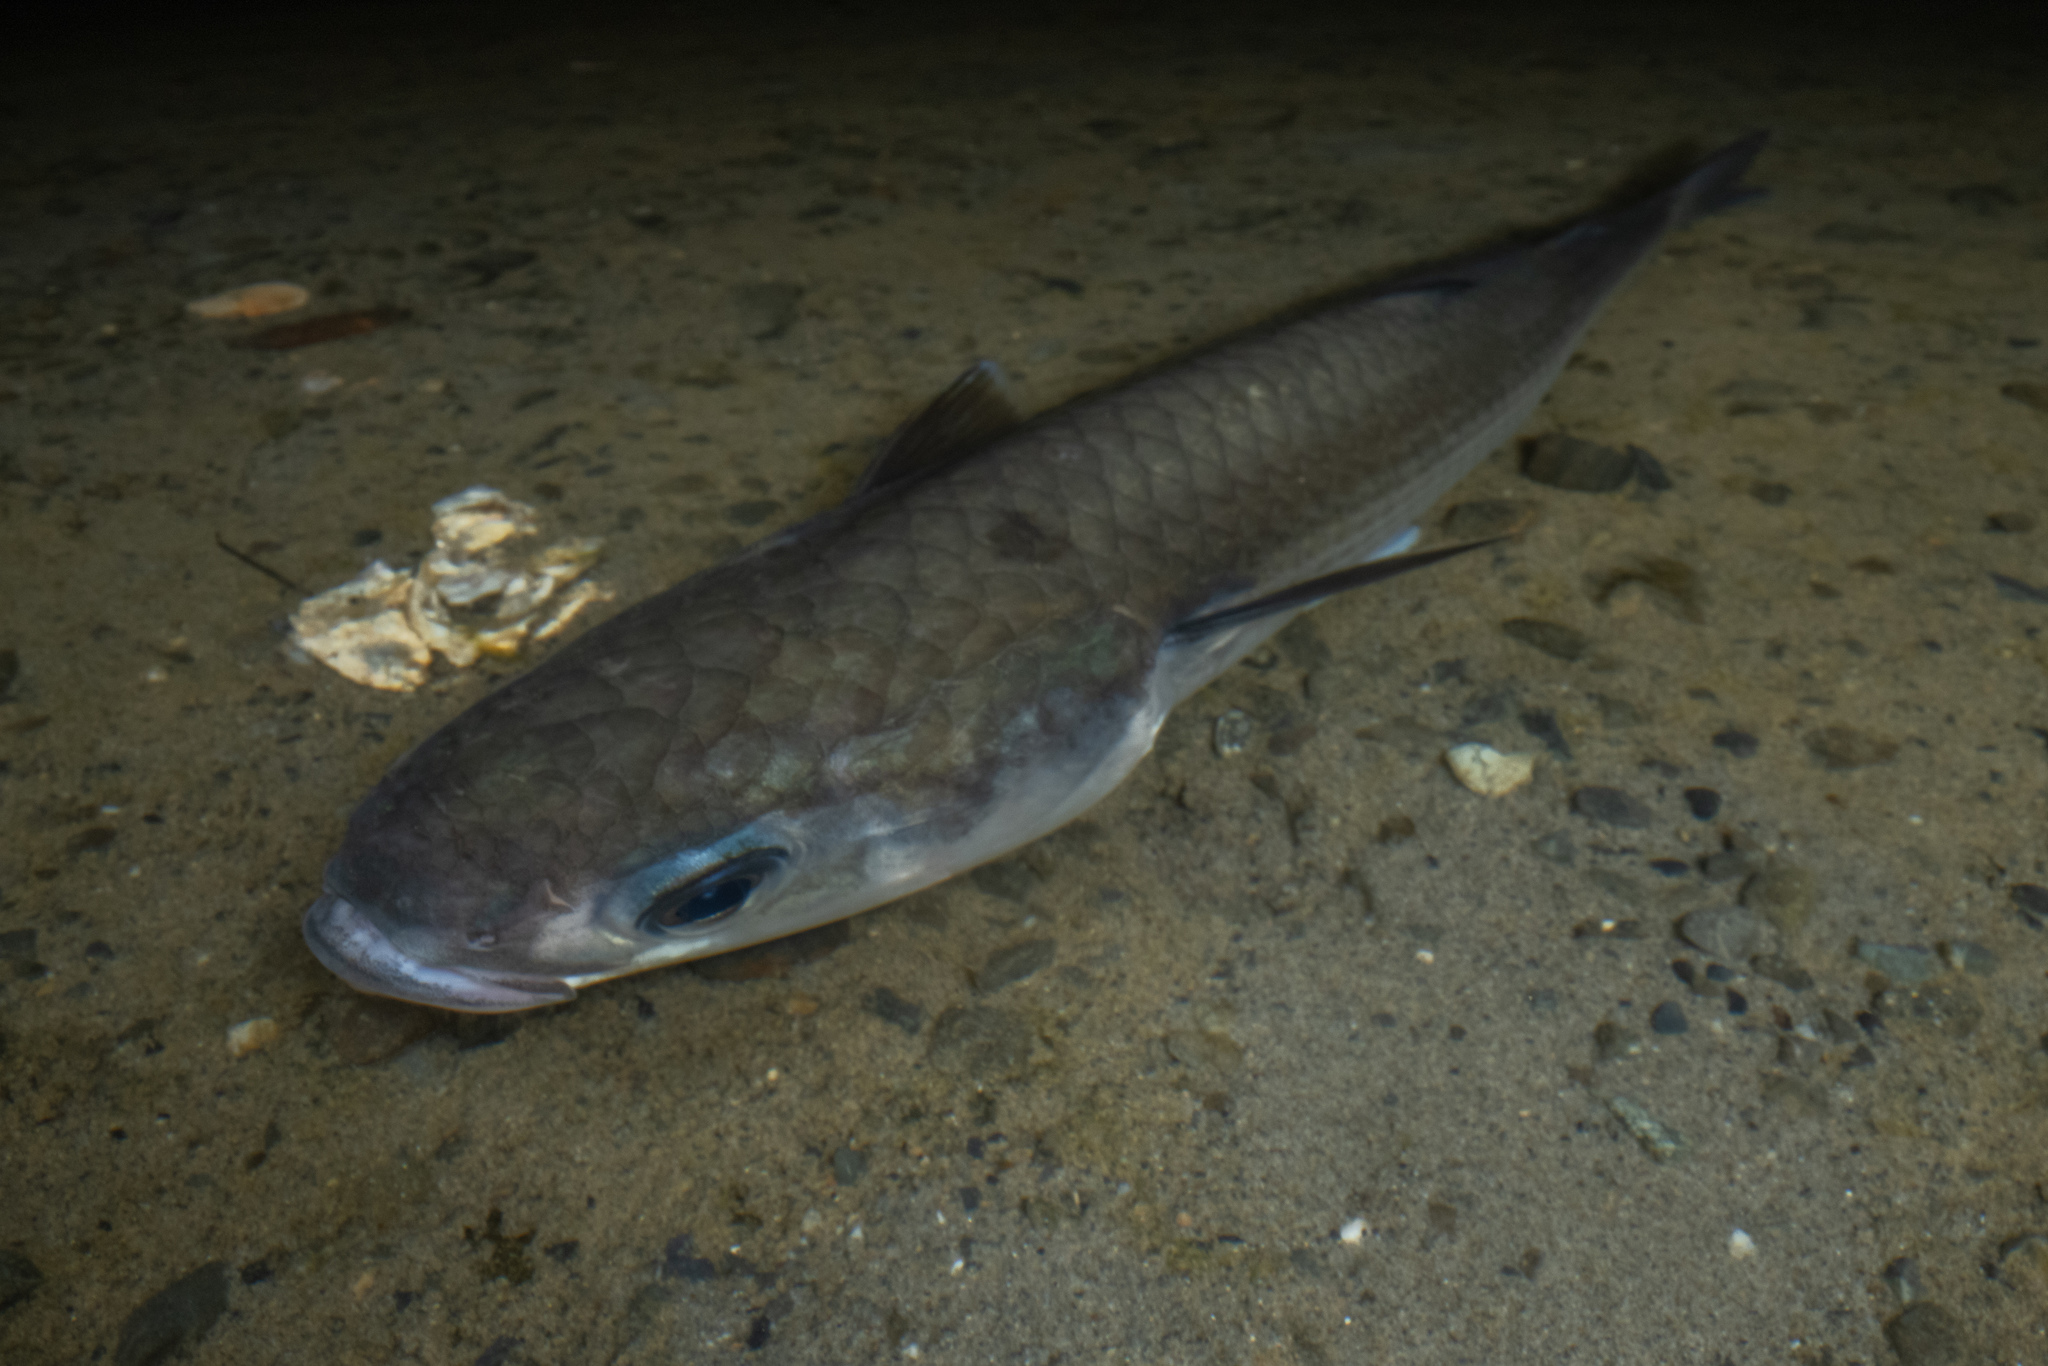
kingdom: Animalia
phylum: Chordata
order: Mugiliformes
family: Mugilidae
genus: Mugil
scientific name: Mugil cephalus
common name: Grey mullet
